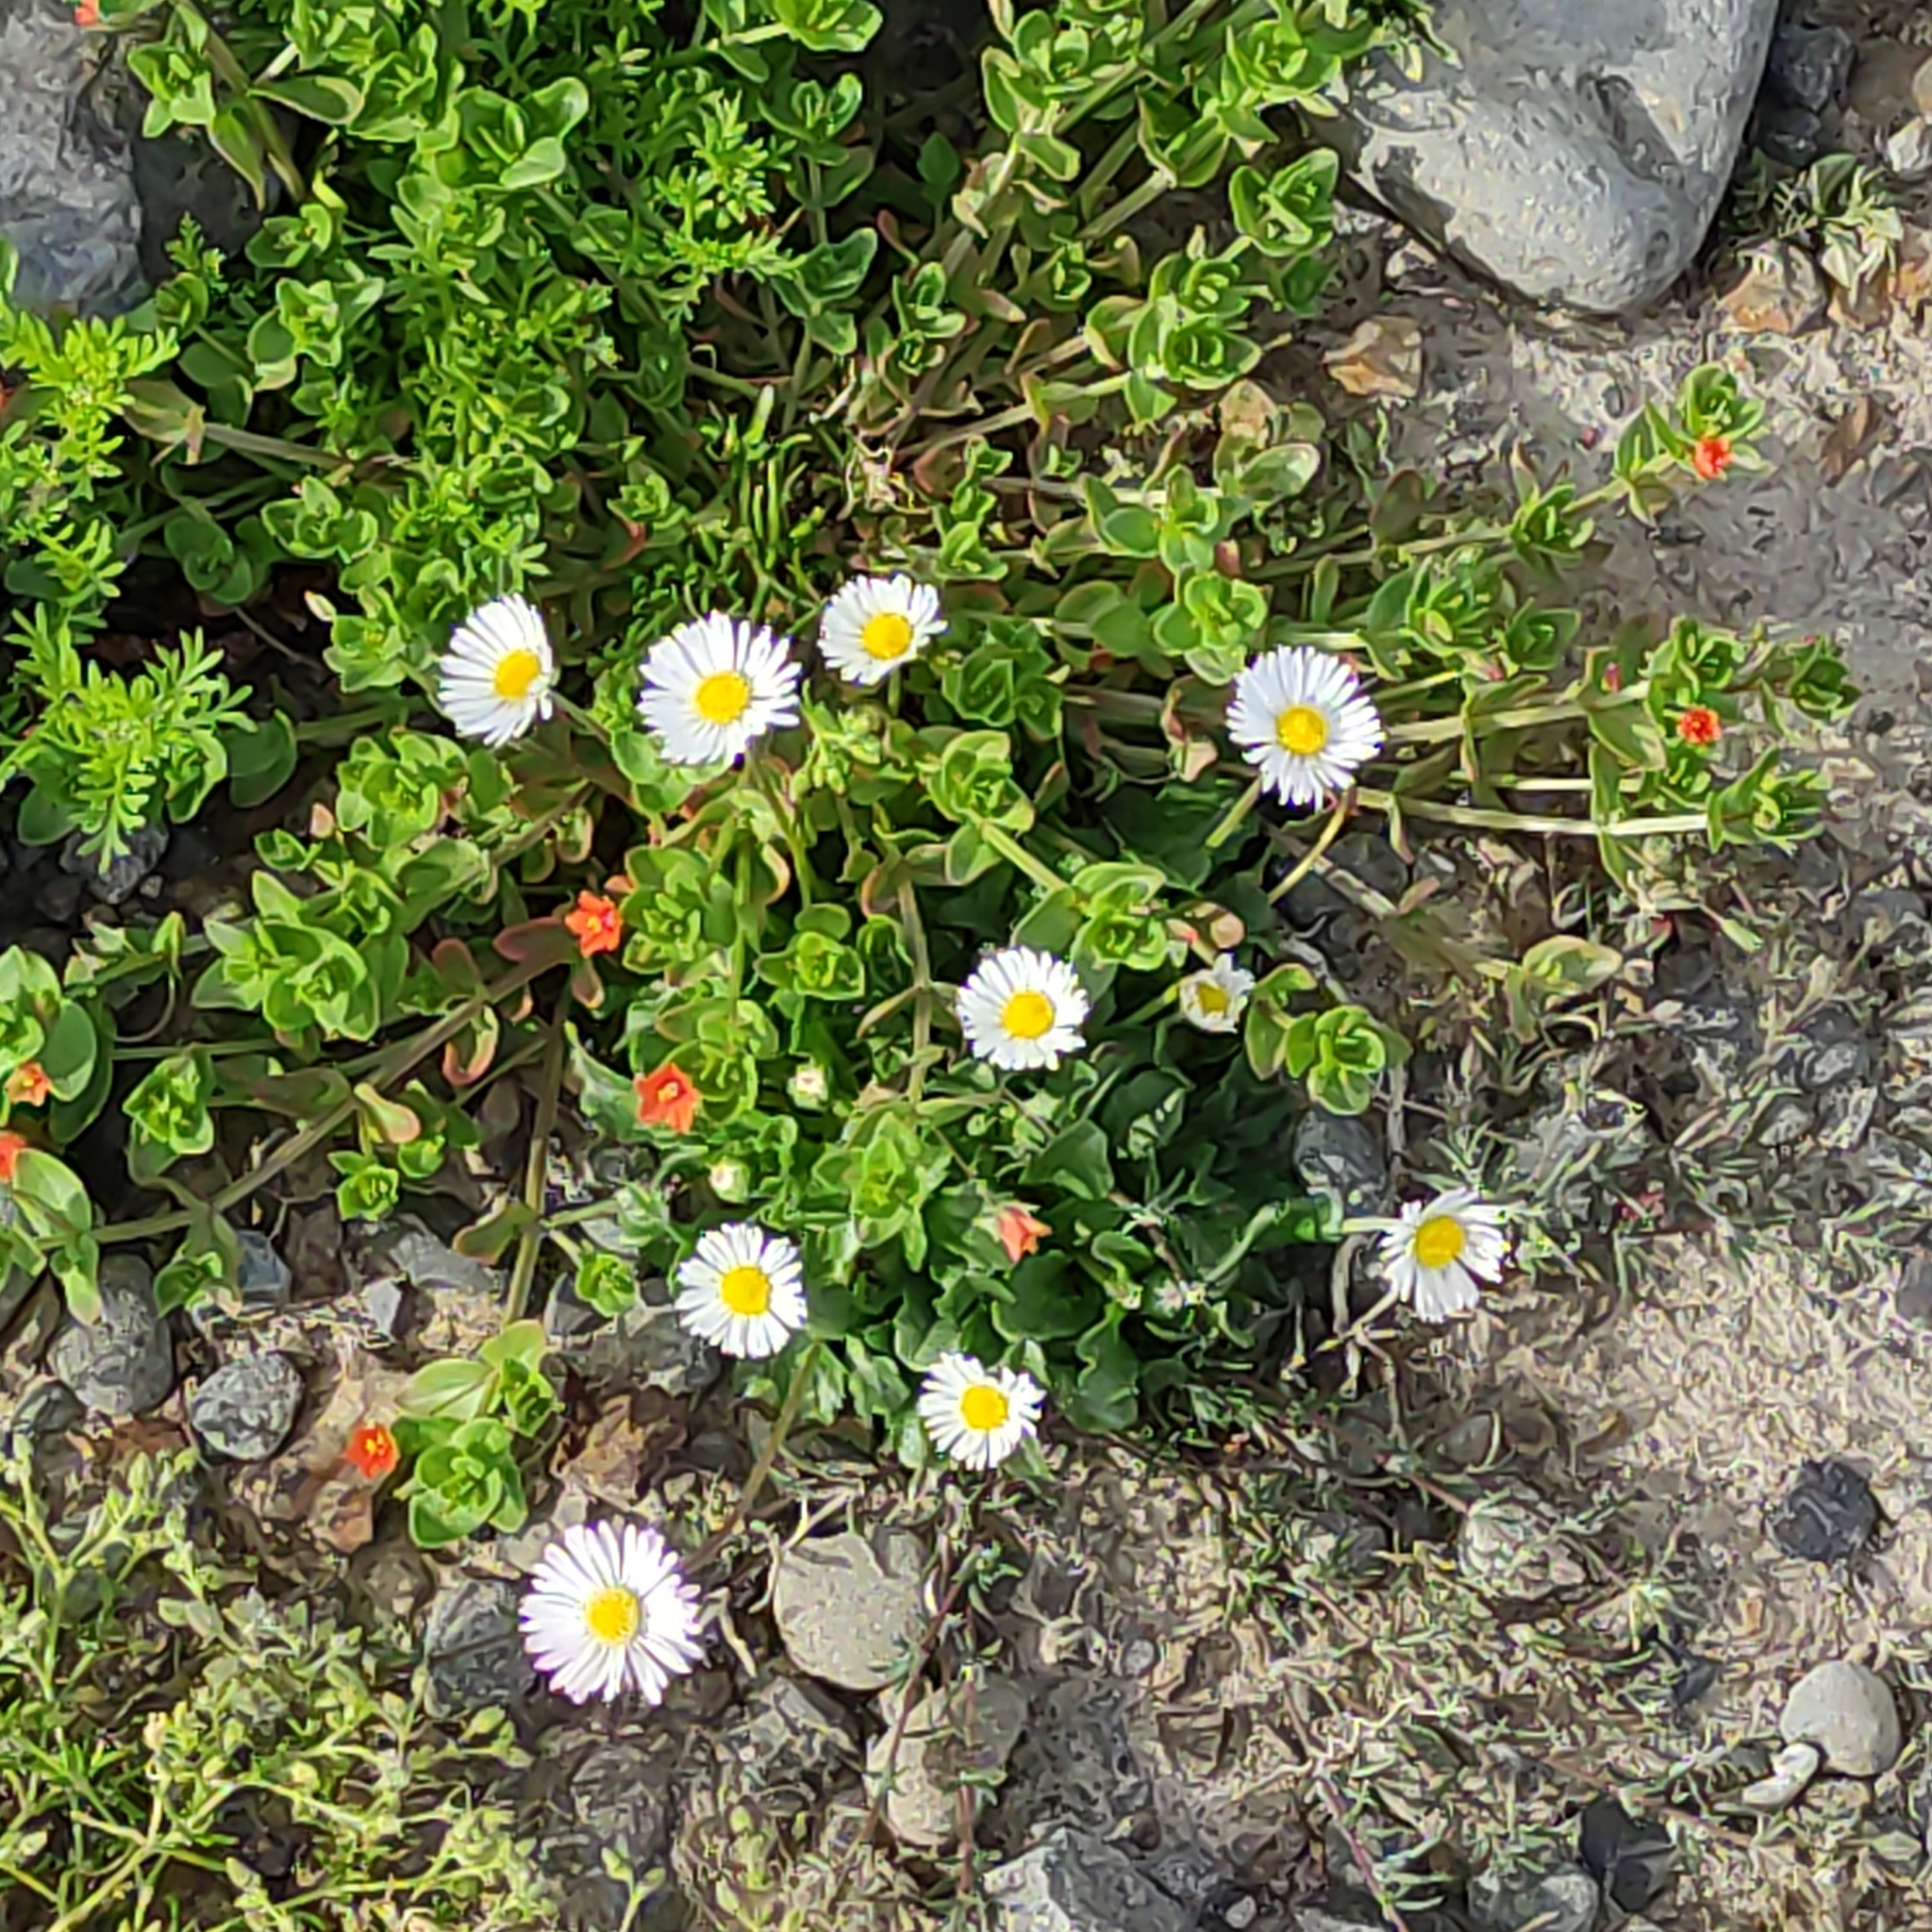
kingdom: Plantae
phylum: Tracheophyta
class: Magnoliopsida
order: Asterales
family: Asteraceae
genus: Bellis
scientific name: Bellis perennis
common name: Lawndaisy
